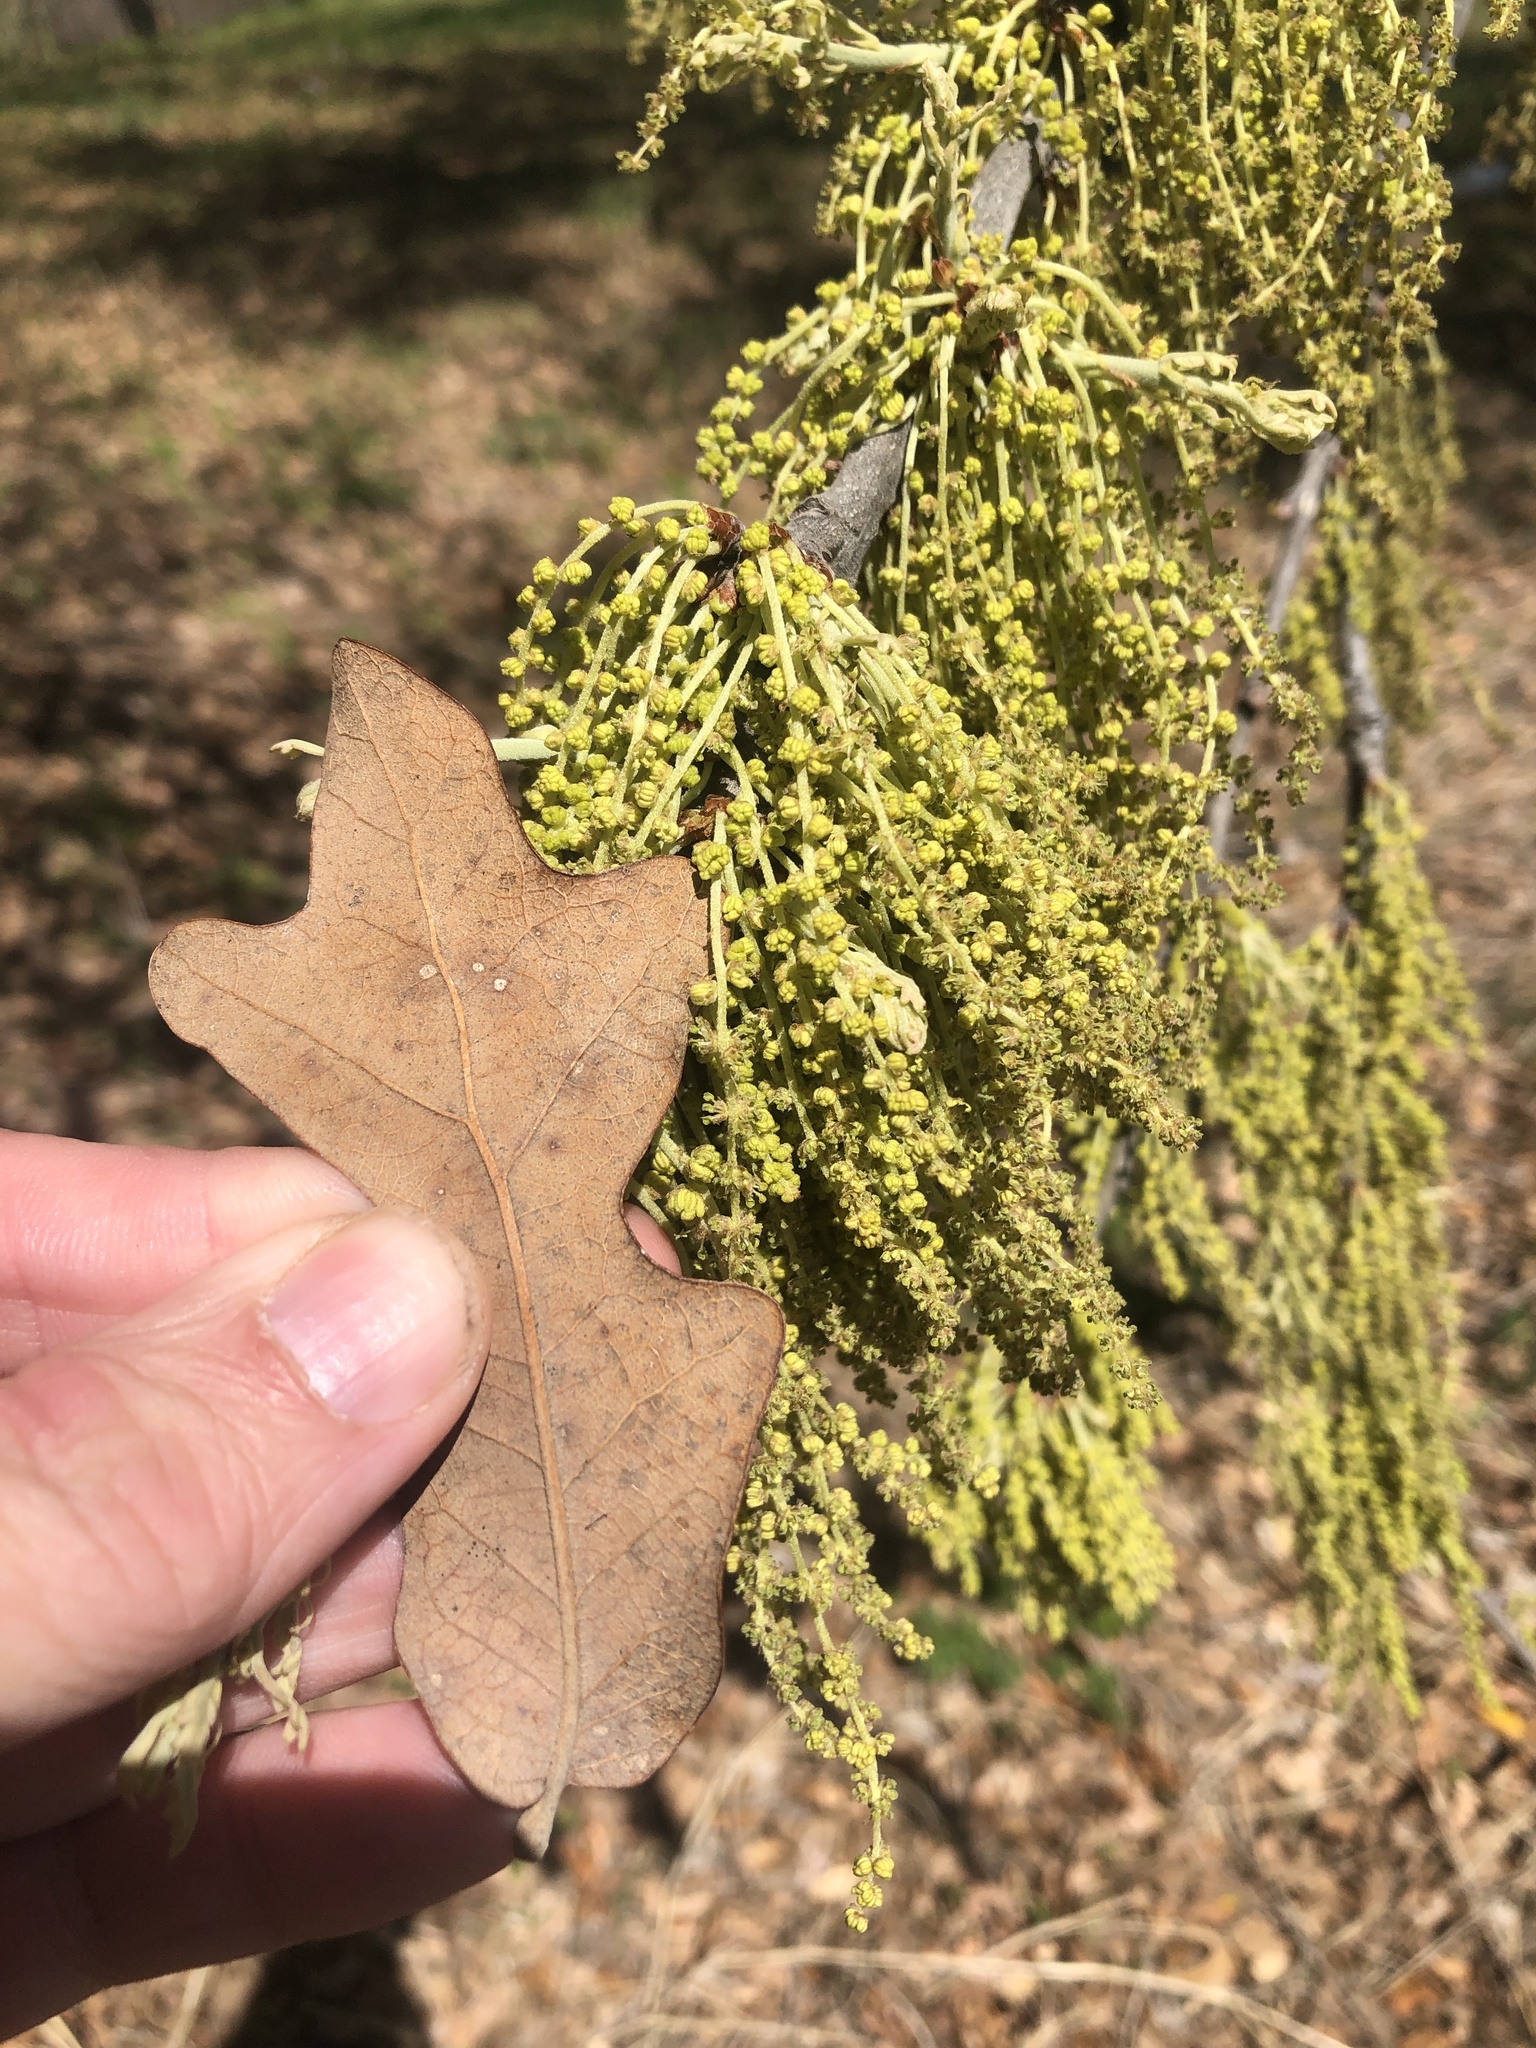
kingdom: Plantae
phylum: Tracheophyta
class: Magnoliopsida
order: Fagales
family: Fagaceae
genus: Quercus
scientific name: Quercus stellata
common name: Post oak
